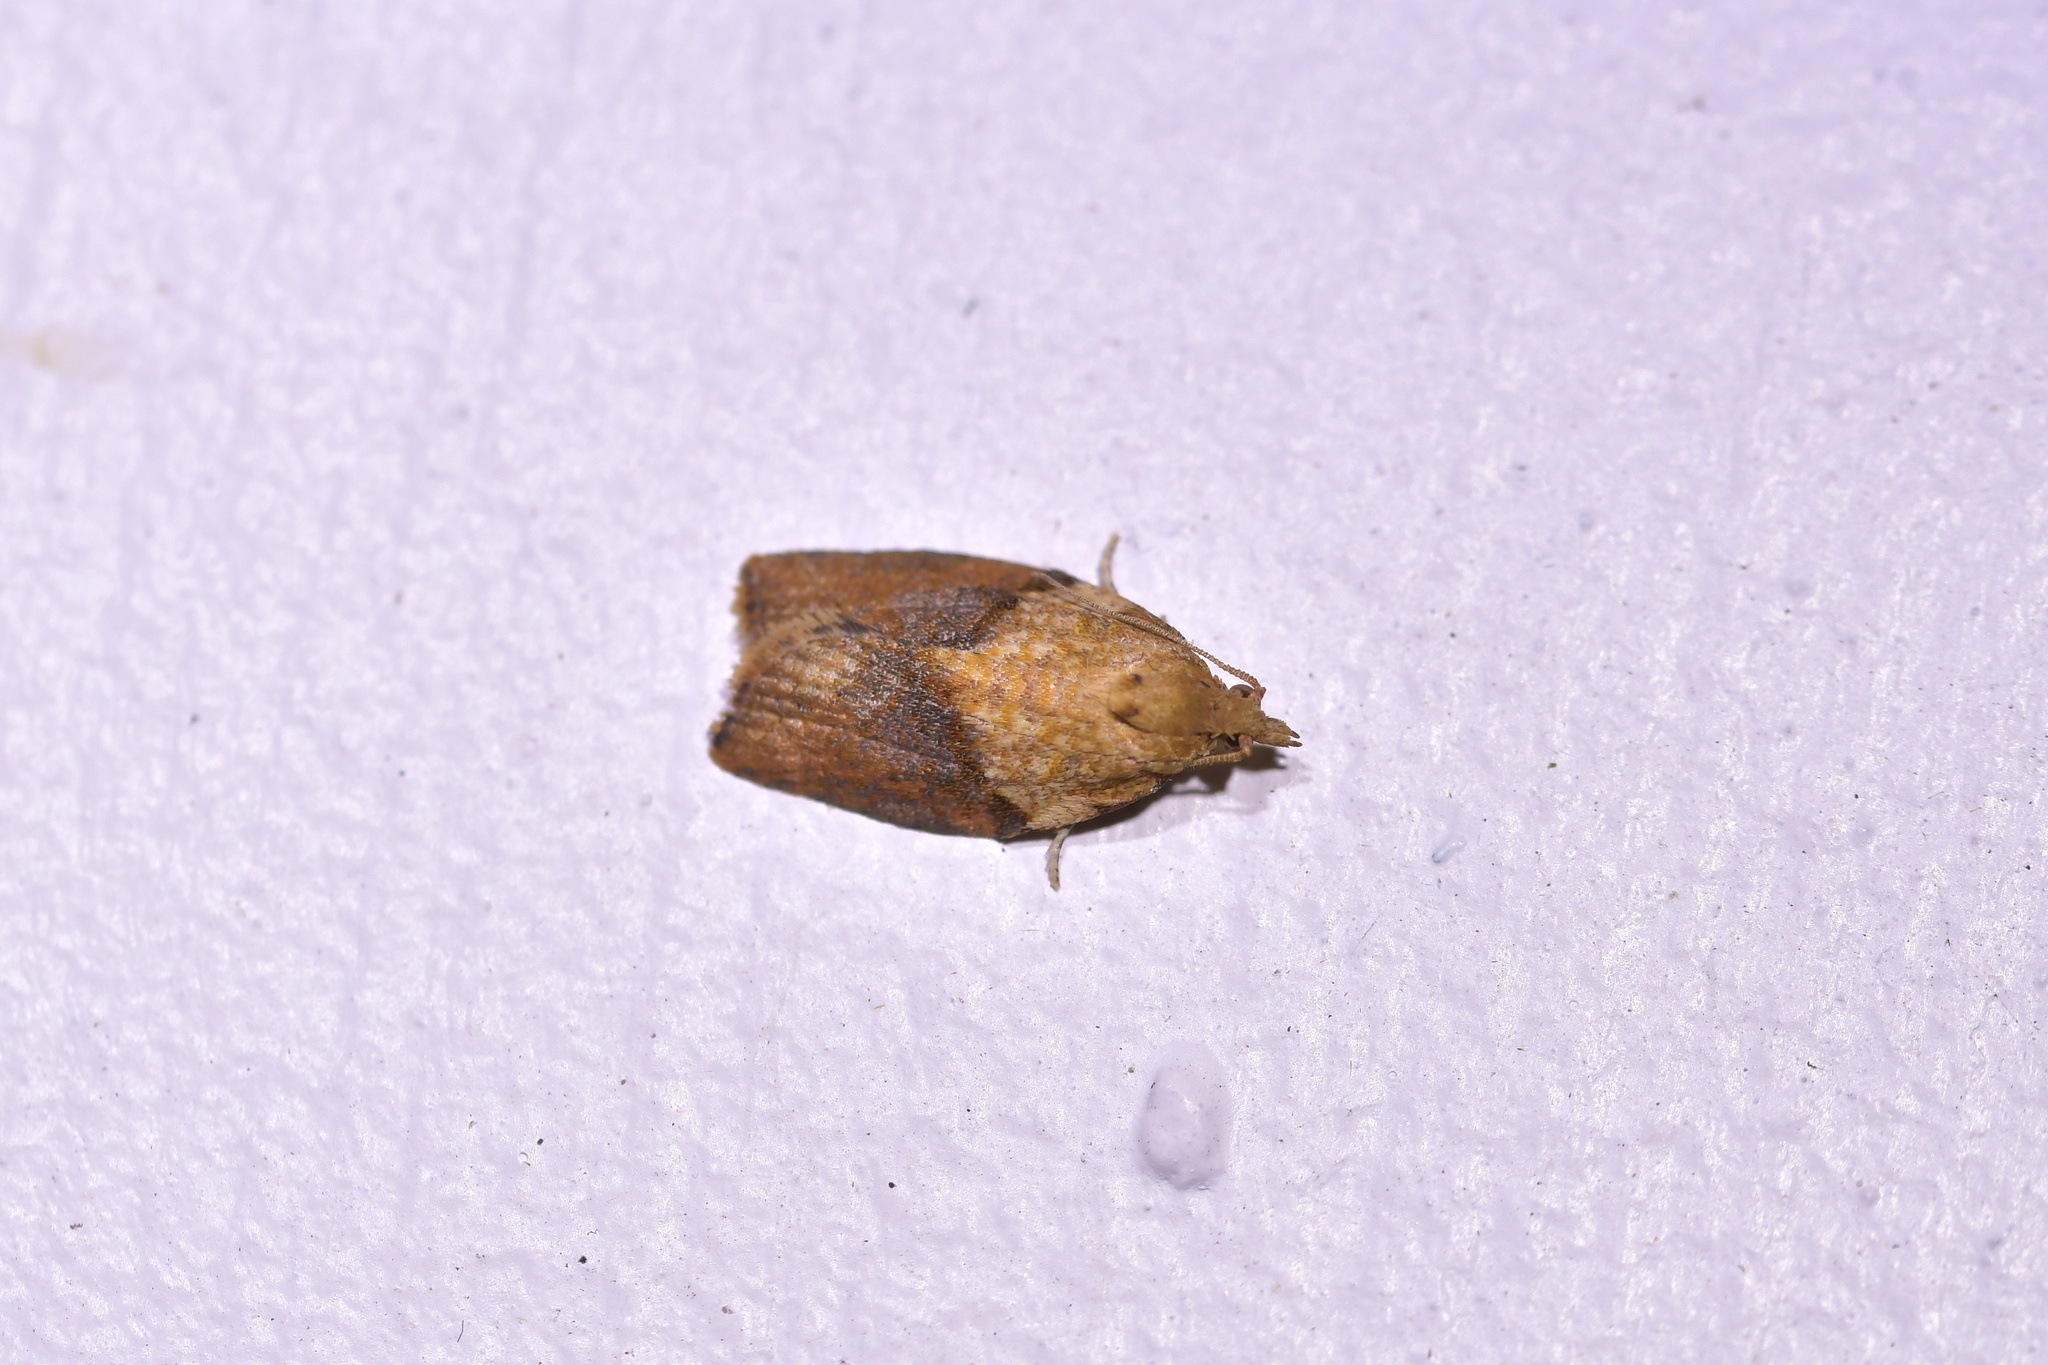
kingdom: Animalia
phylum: Arthropoda
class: Insecta
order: Lepidoptera
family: Tortricidae
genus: Epiphyas
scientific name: Epiphyas postvittana
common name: Light brown apple moth
